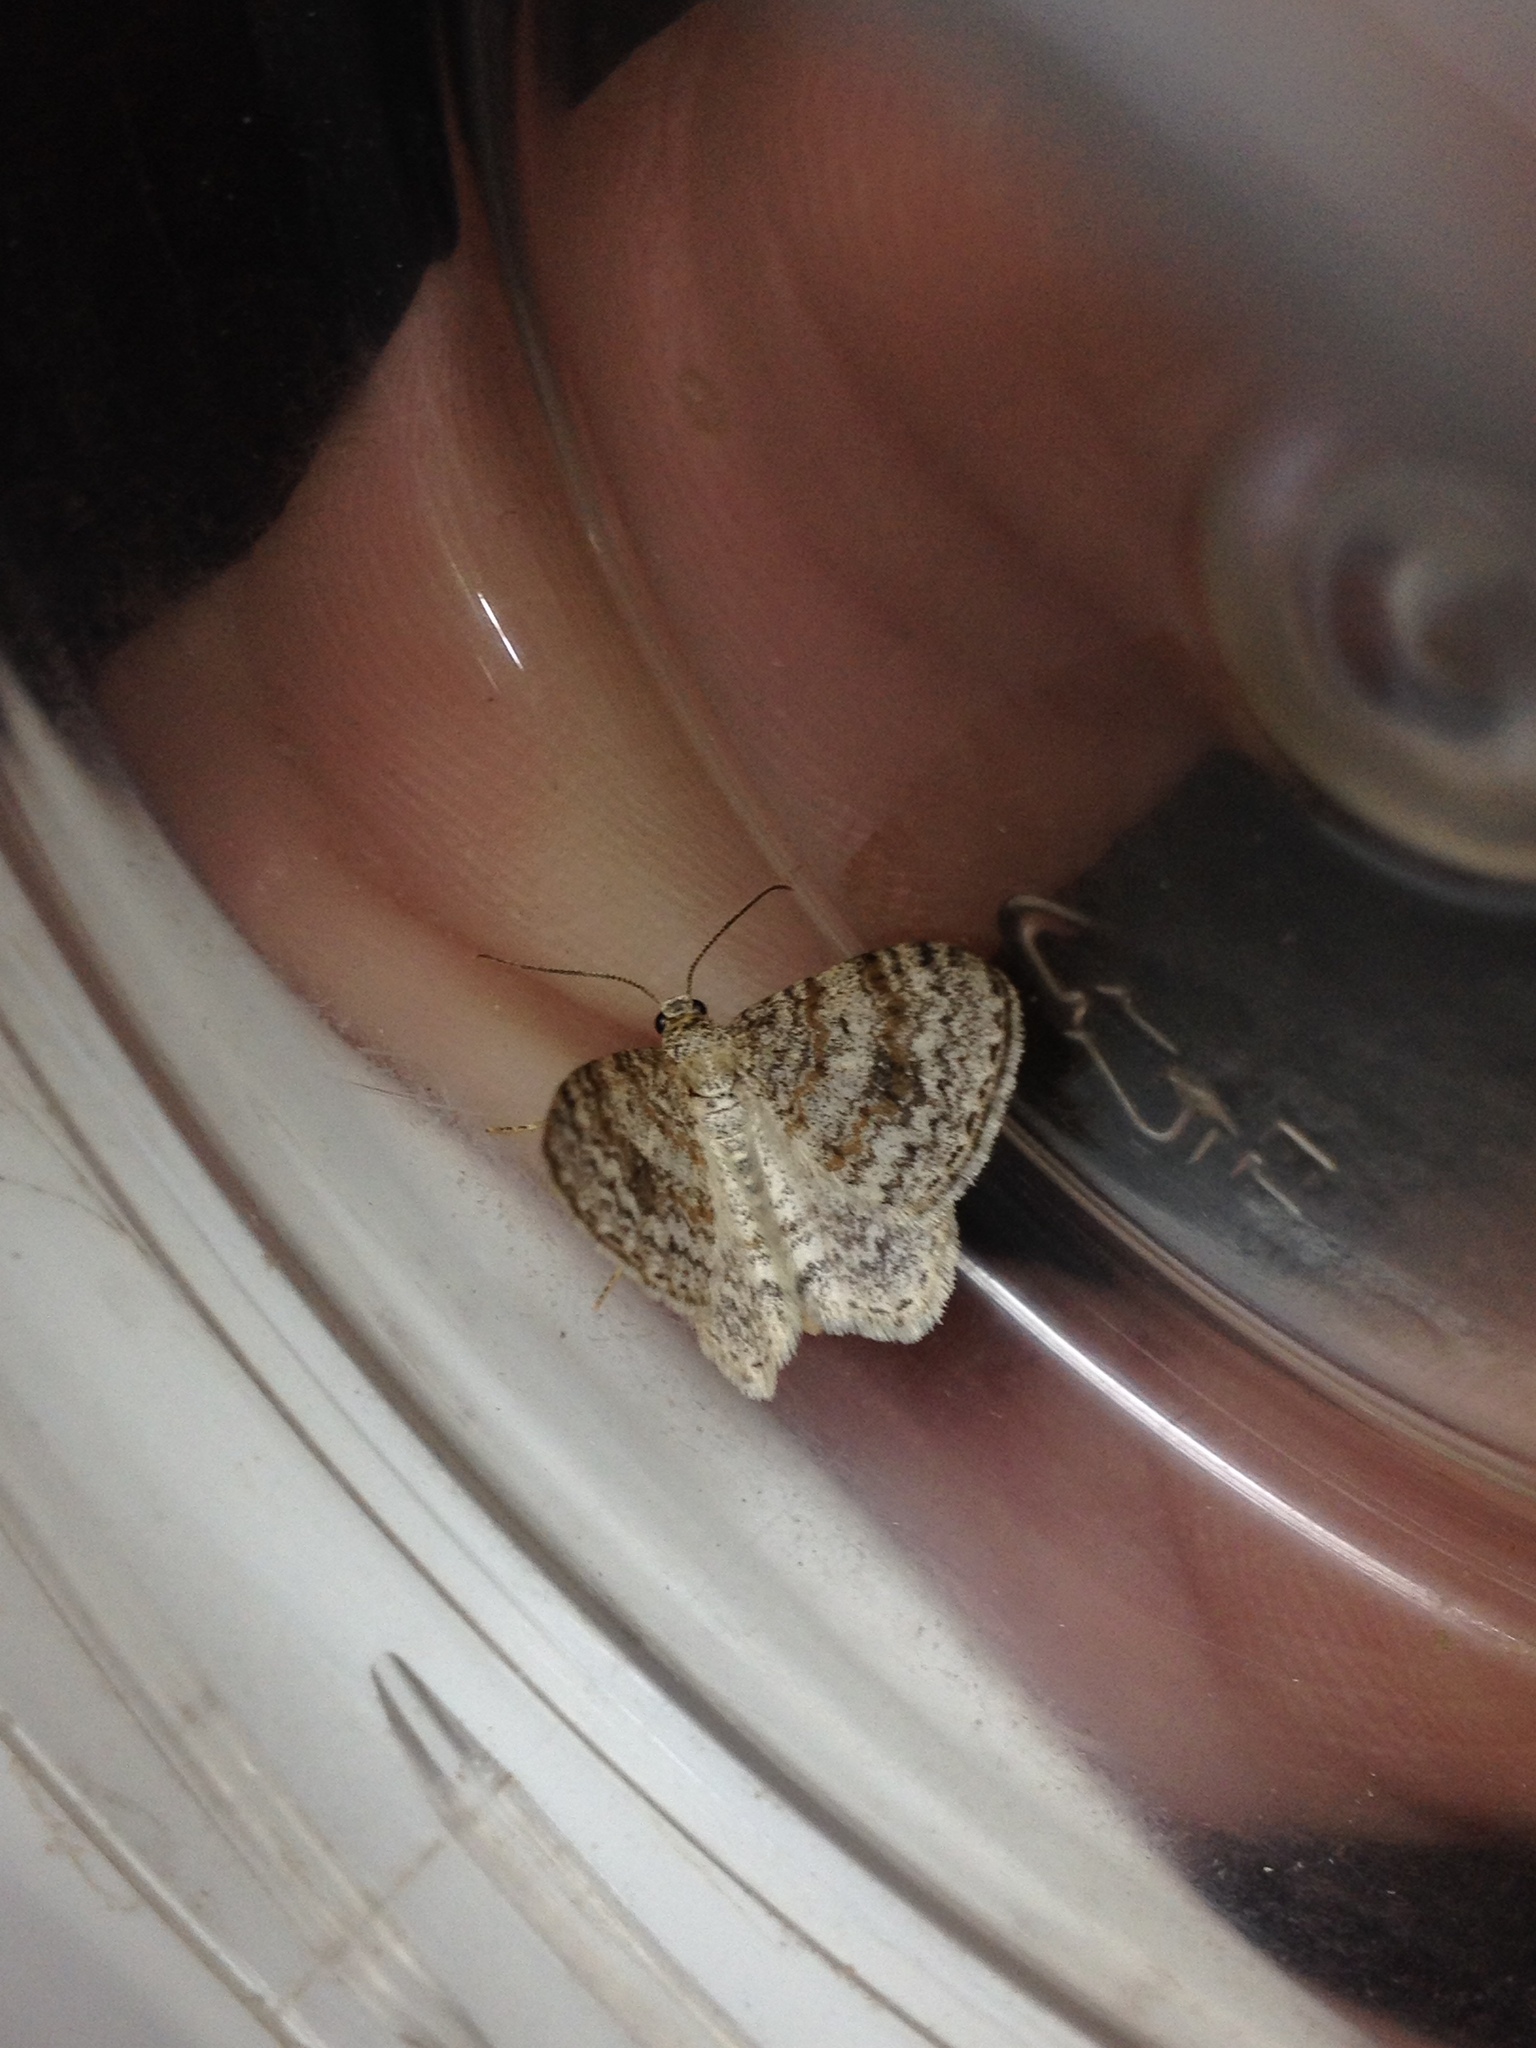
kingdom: Animalia
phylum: Arthropoda
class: Insecta
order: Lepidoptera
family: Geometridae
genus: Hydrelia
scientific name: Hydrelia sylvata
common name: Waved carpet
